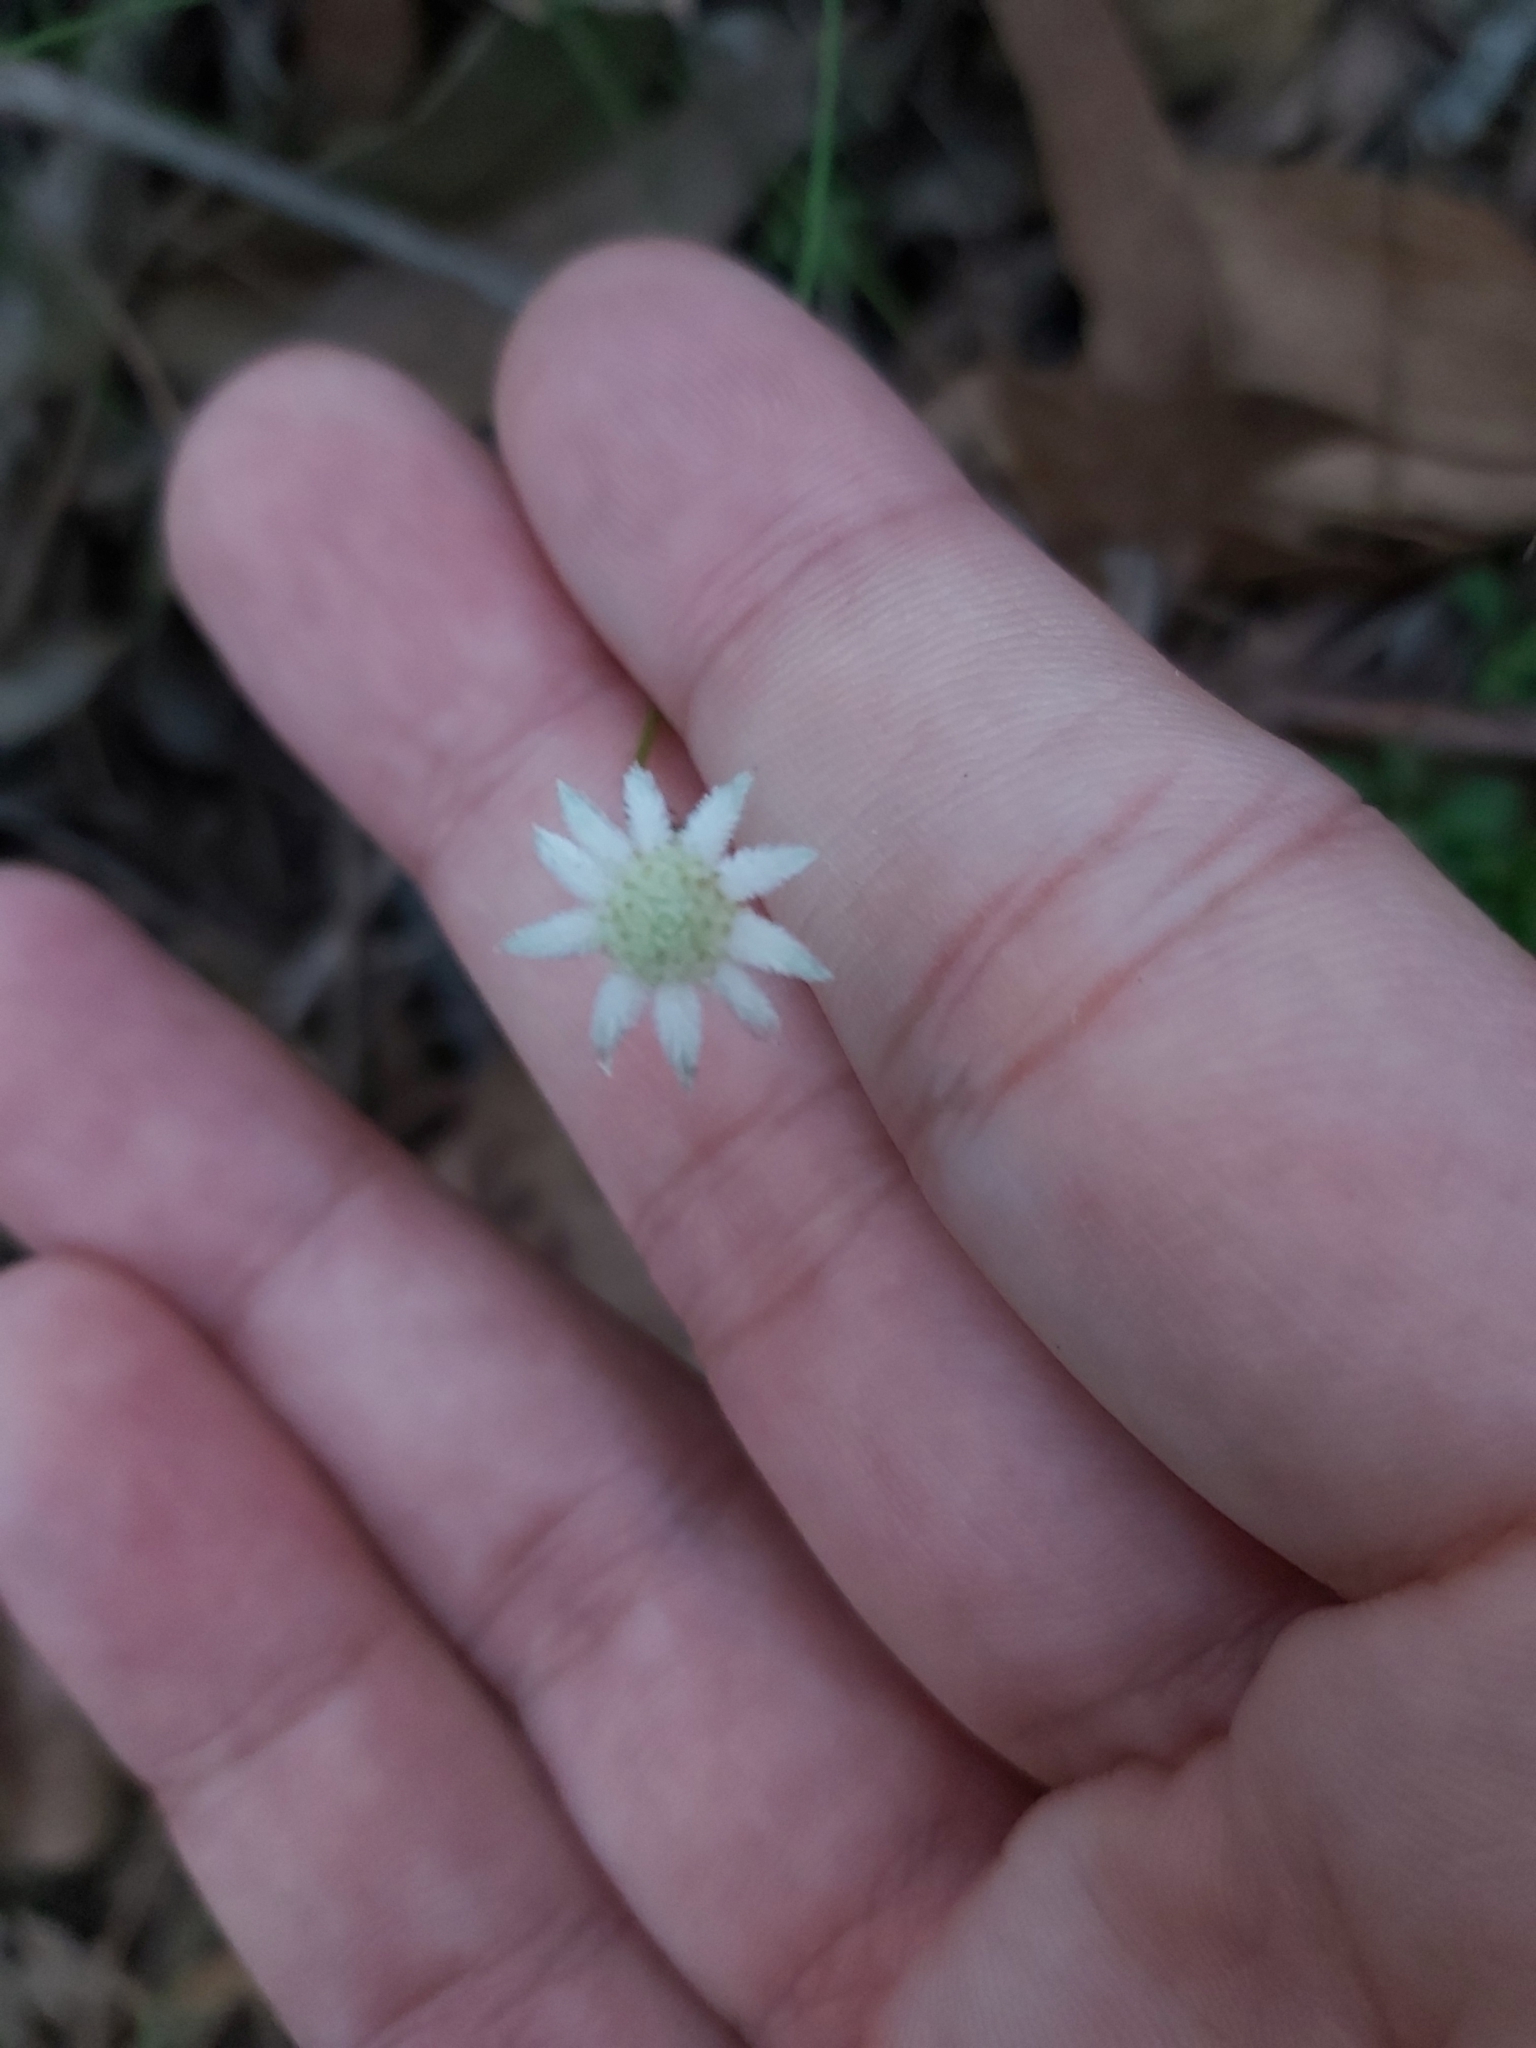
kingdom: Plantae
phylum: Tracheophyta
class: Magnoliopsida
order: Apiales
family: Apiaceae
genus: Actinotus
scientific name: Actinotus minor
